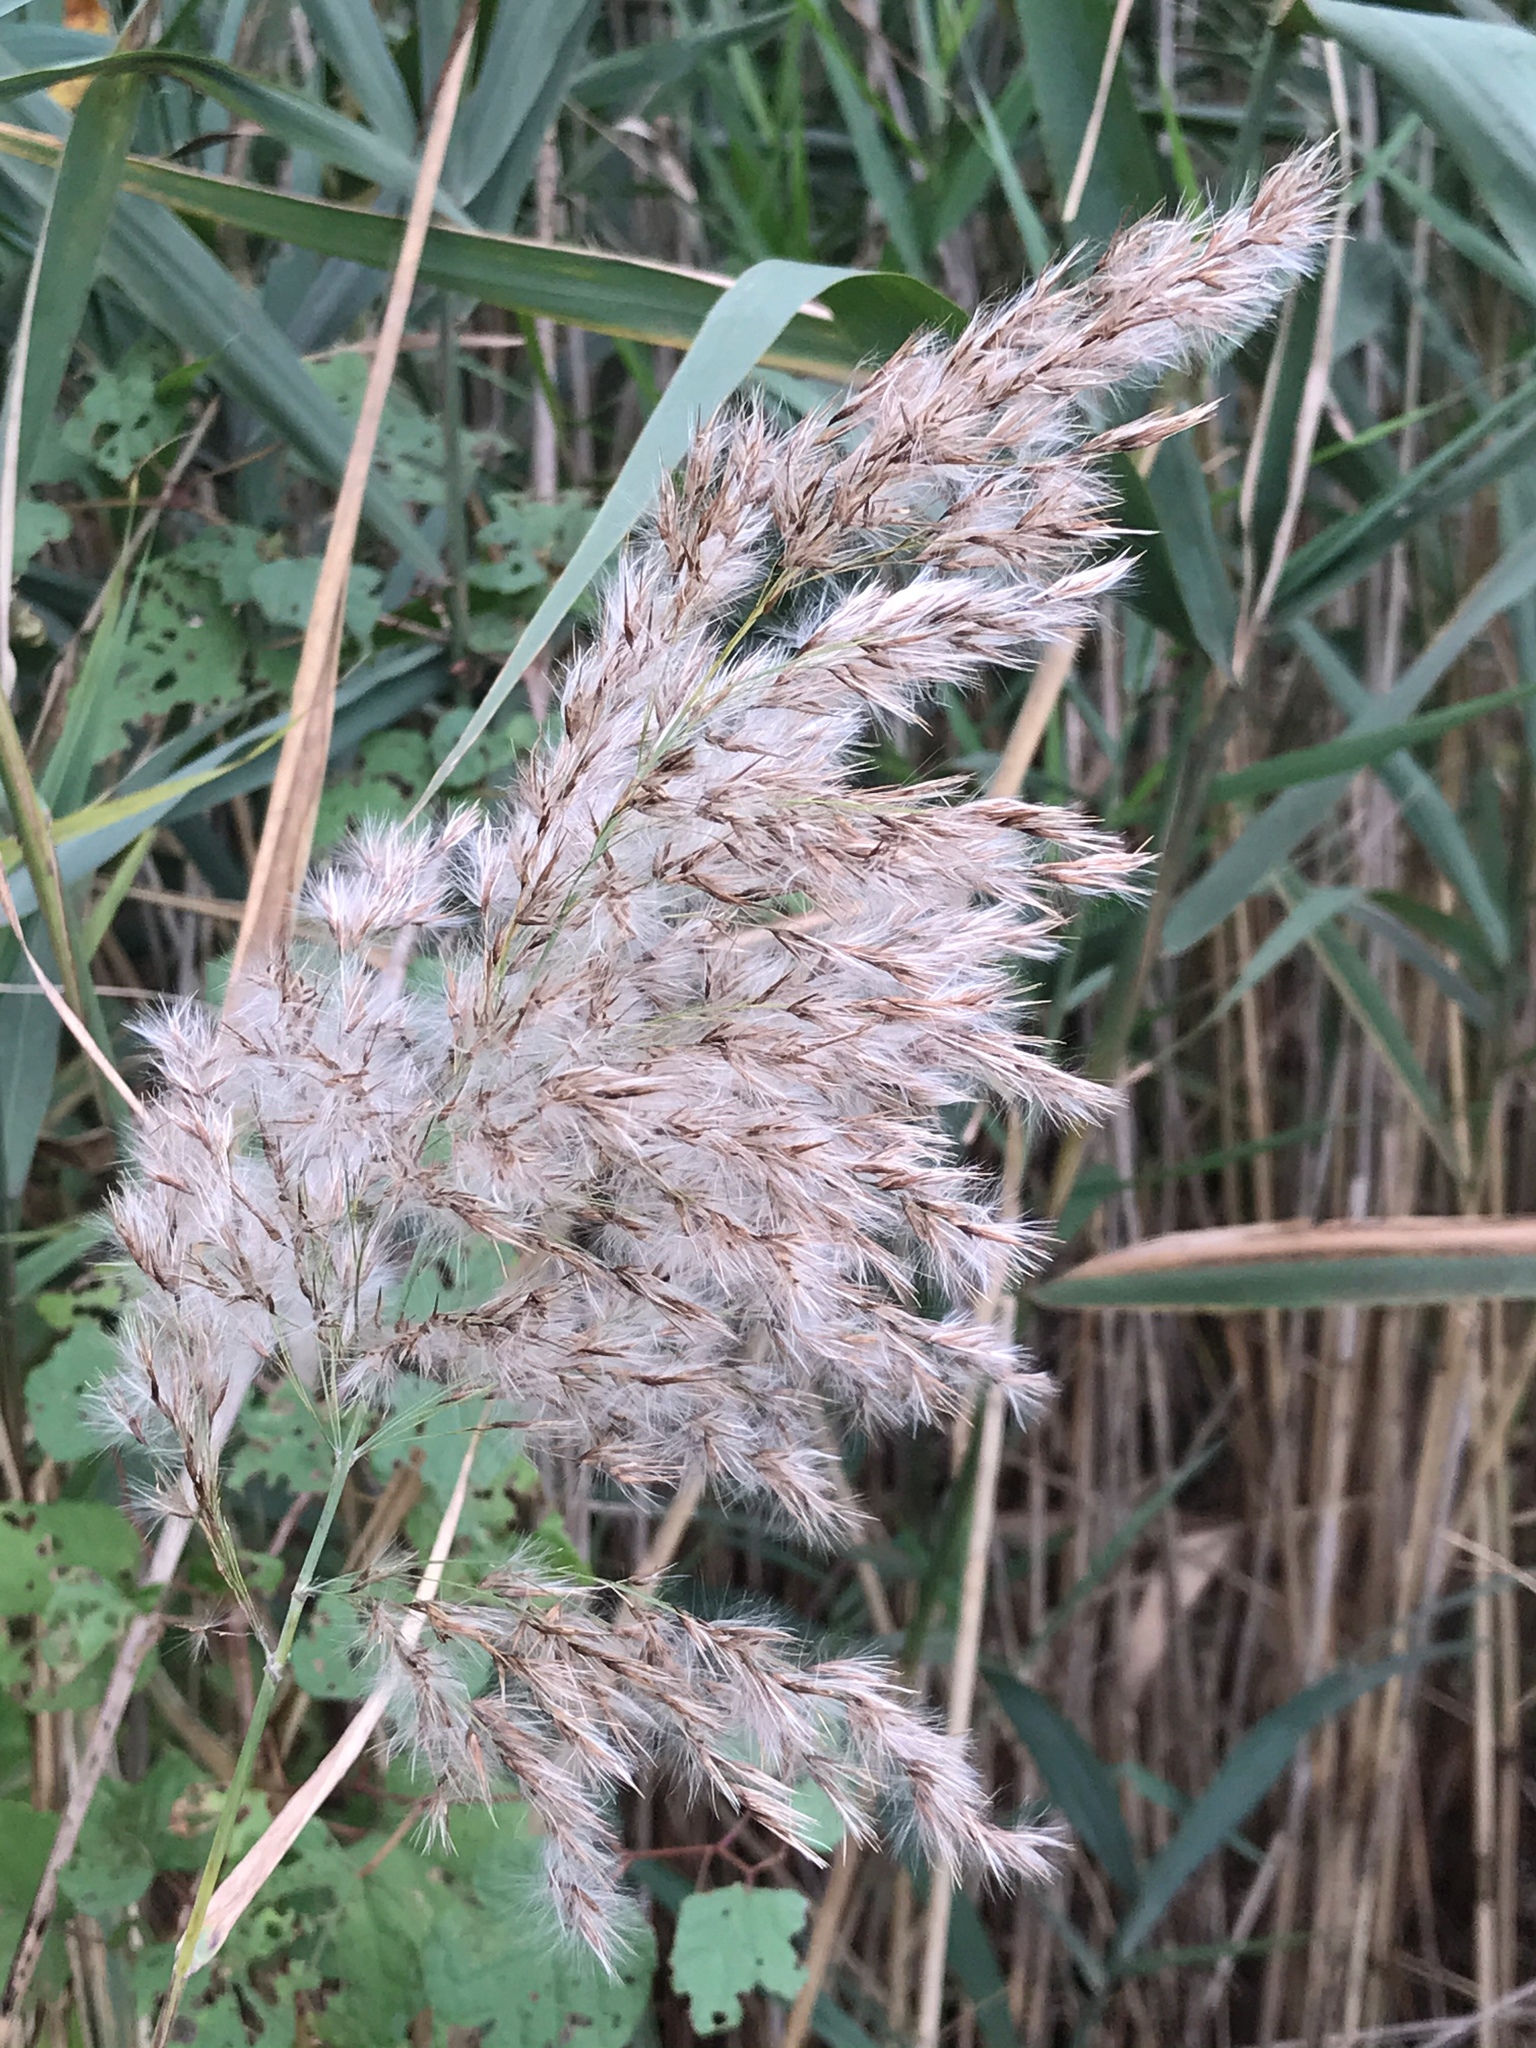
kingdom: Plantae
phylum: Tracheophyta
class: Liliopsida
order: Poales
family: Poaceae
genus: Phragmites
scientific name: Phragmites australis
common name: Common reed
